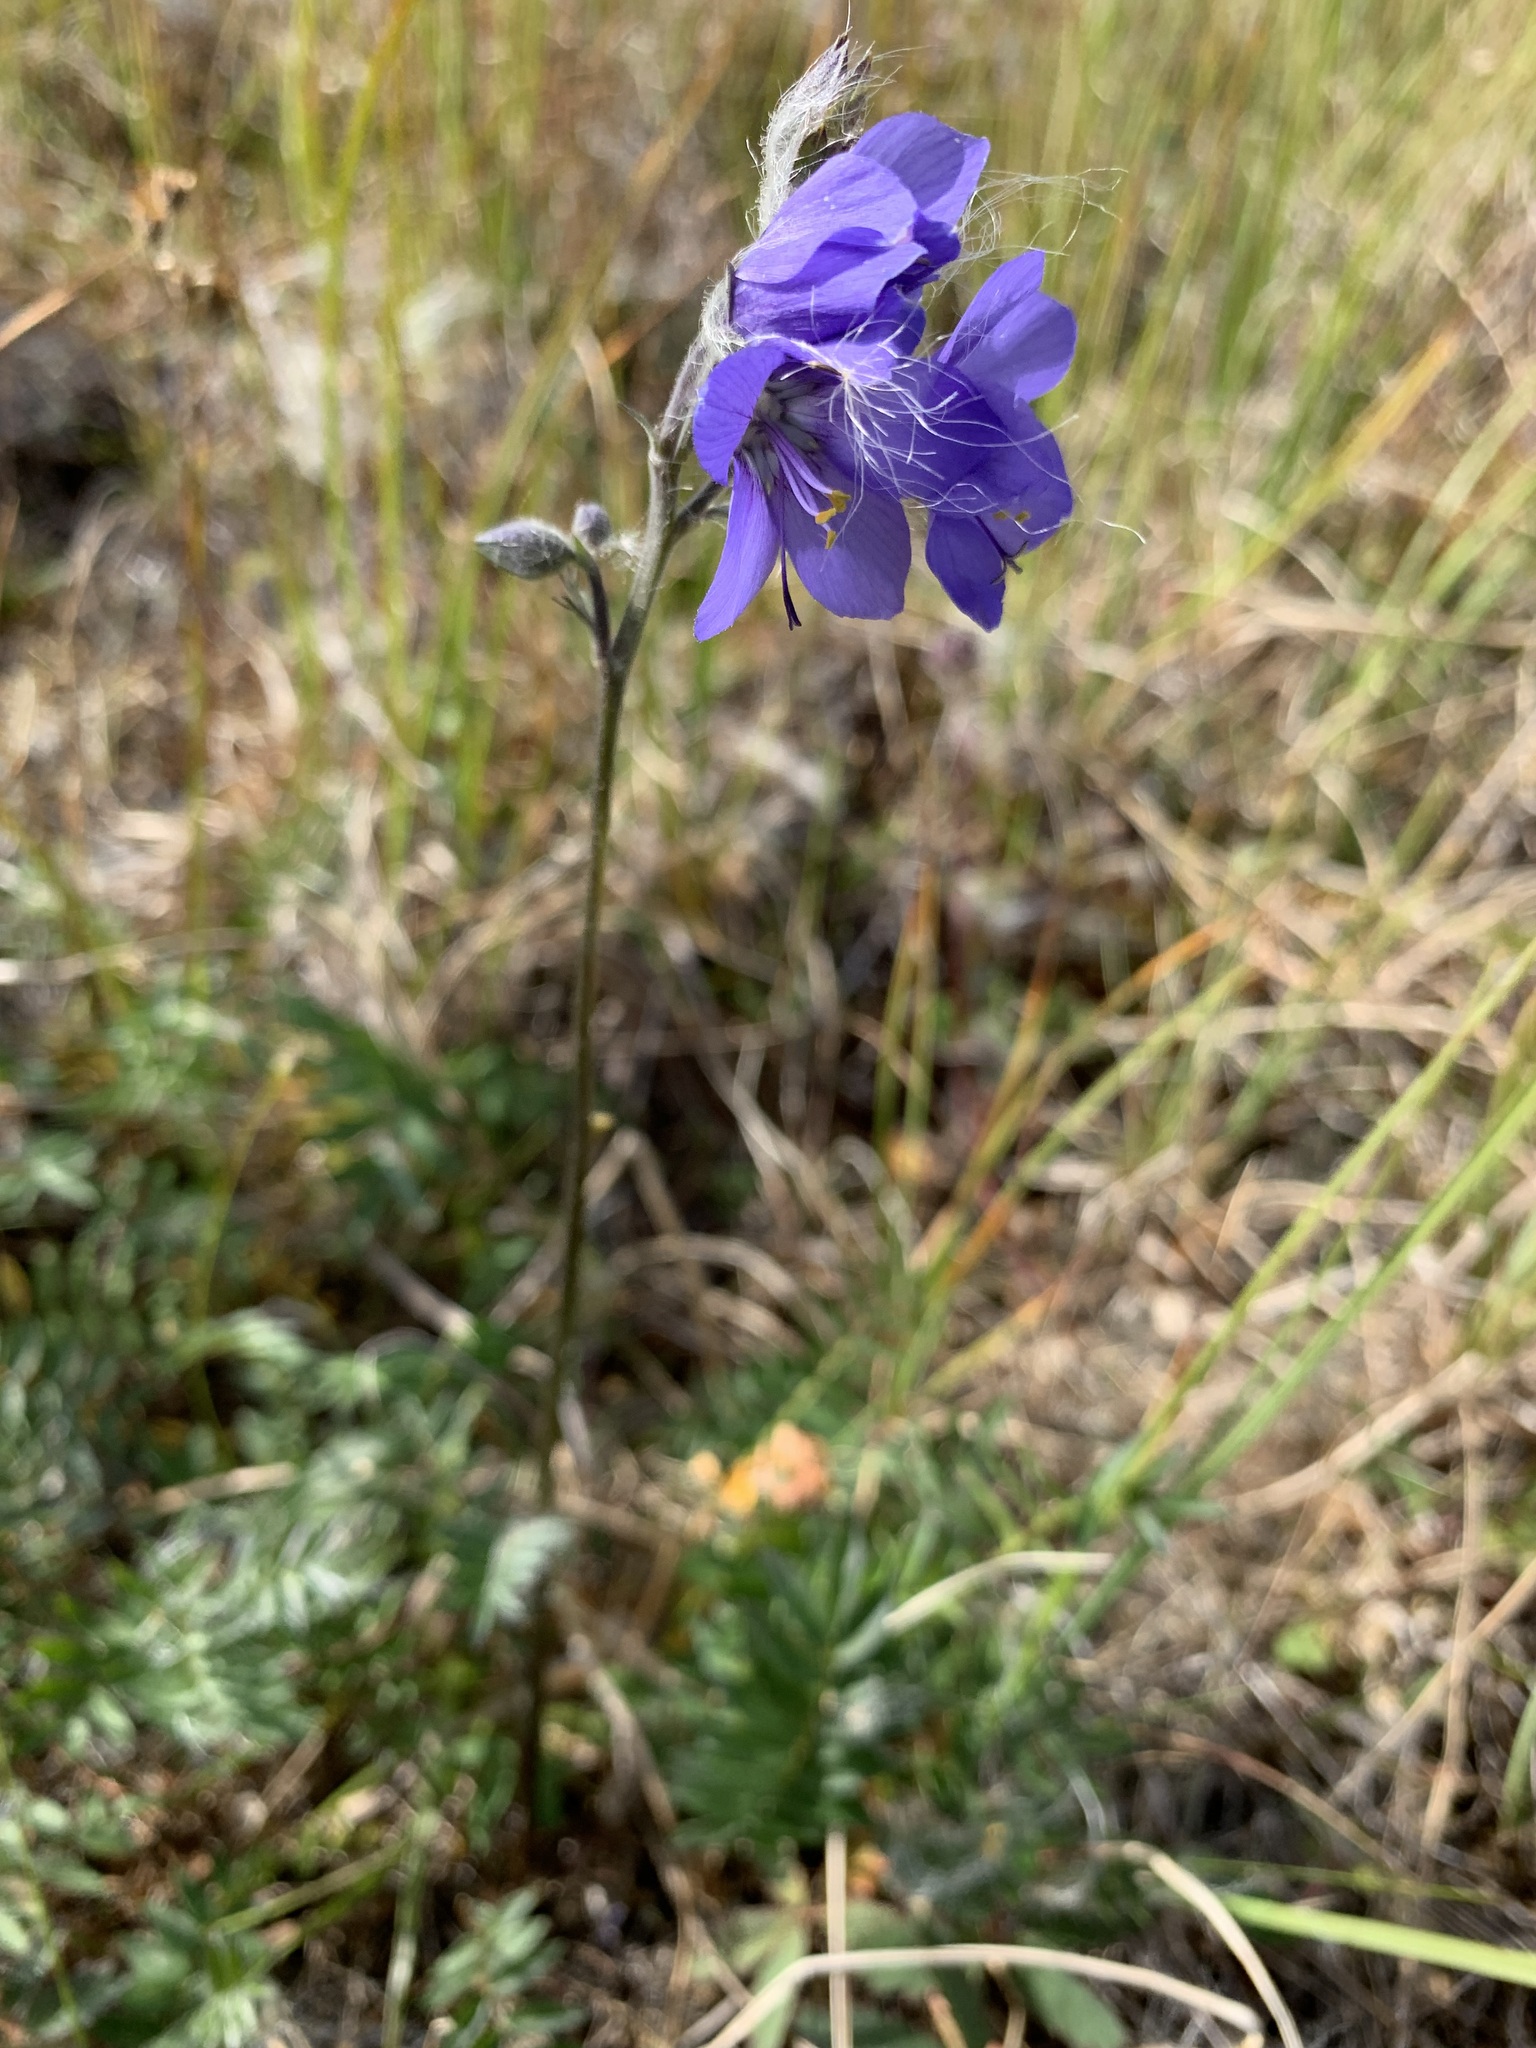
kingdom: Plantae
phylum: Tracheophyta
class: Magnoliopsida
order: Ericales
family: Polemoniaceae
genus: Polemonium
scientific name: Polemonium acutiflorum
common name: Tall jacob's-ladder
